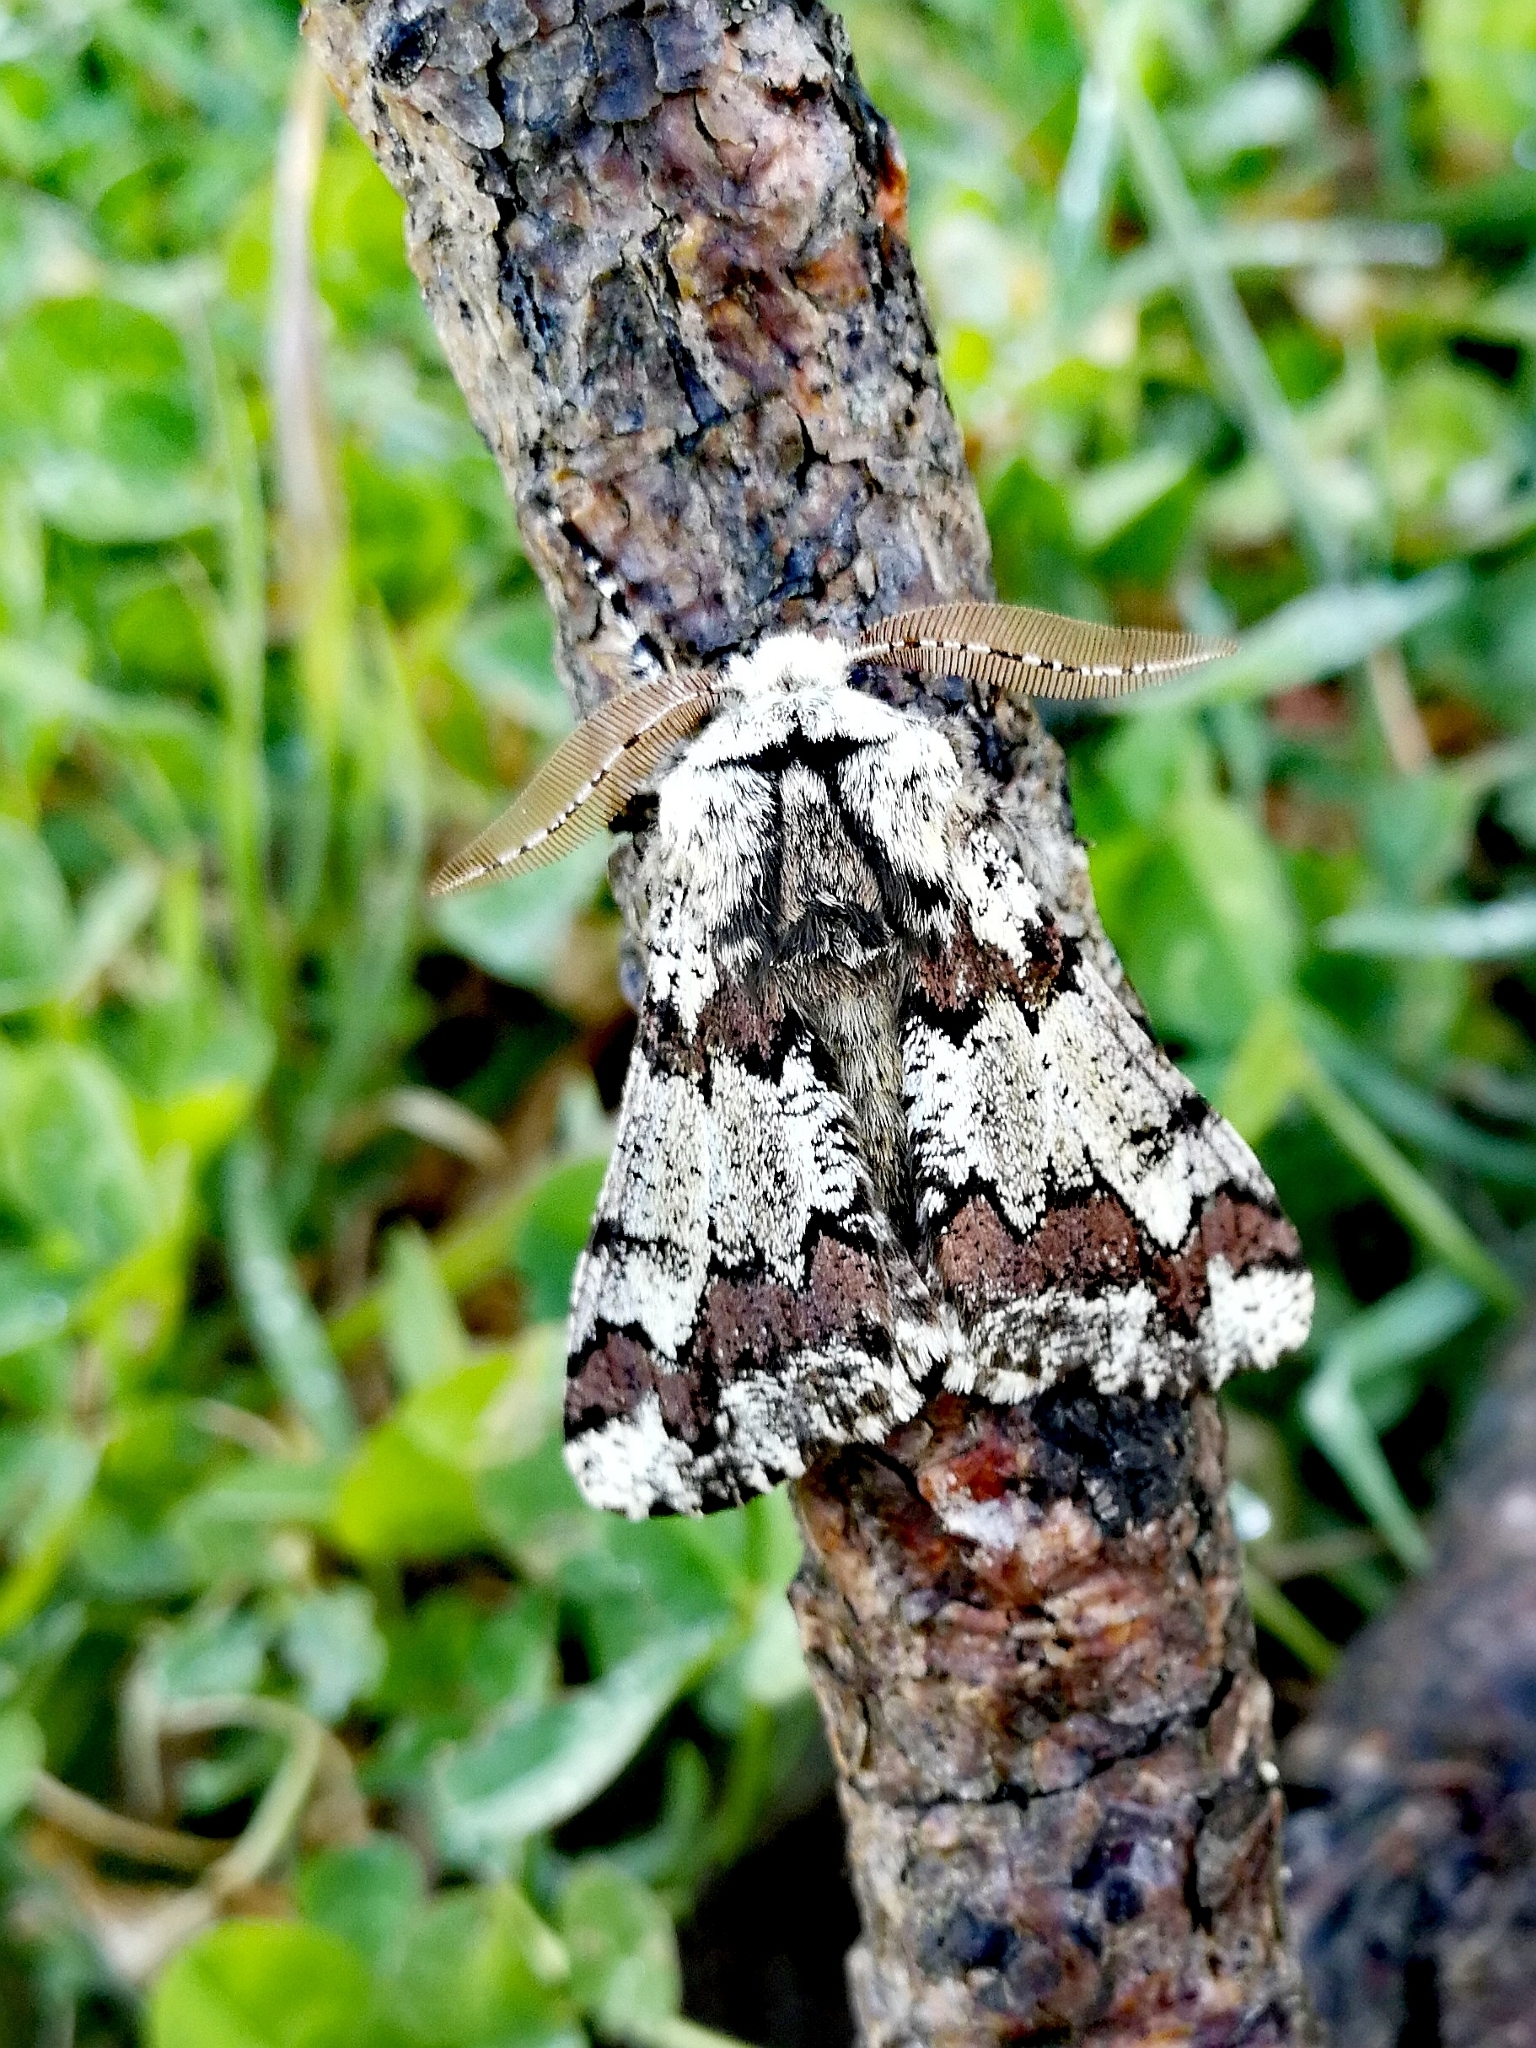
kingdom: Animalia
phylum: Arthropoda
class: Insecta
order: Lepidoptera
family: Geometridae
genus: Biston
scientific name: Biston strataria
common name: Oak beauty
